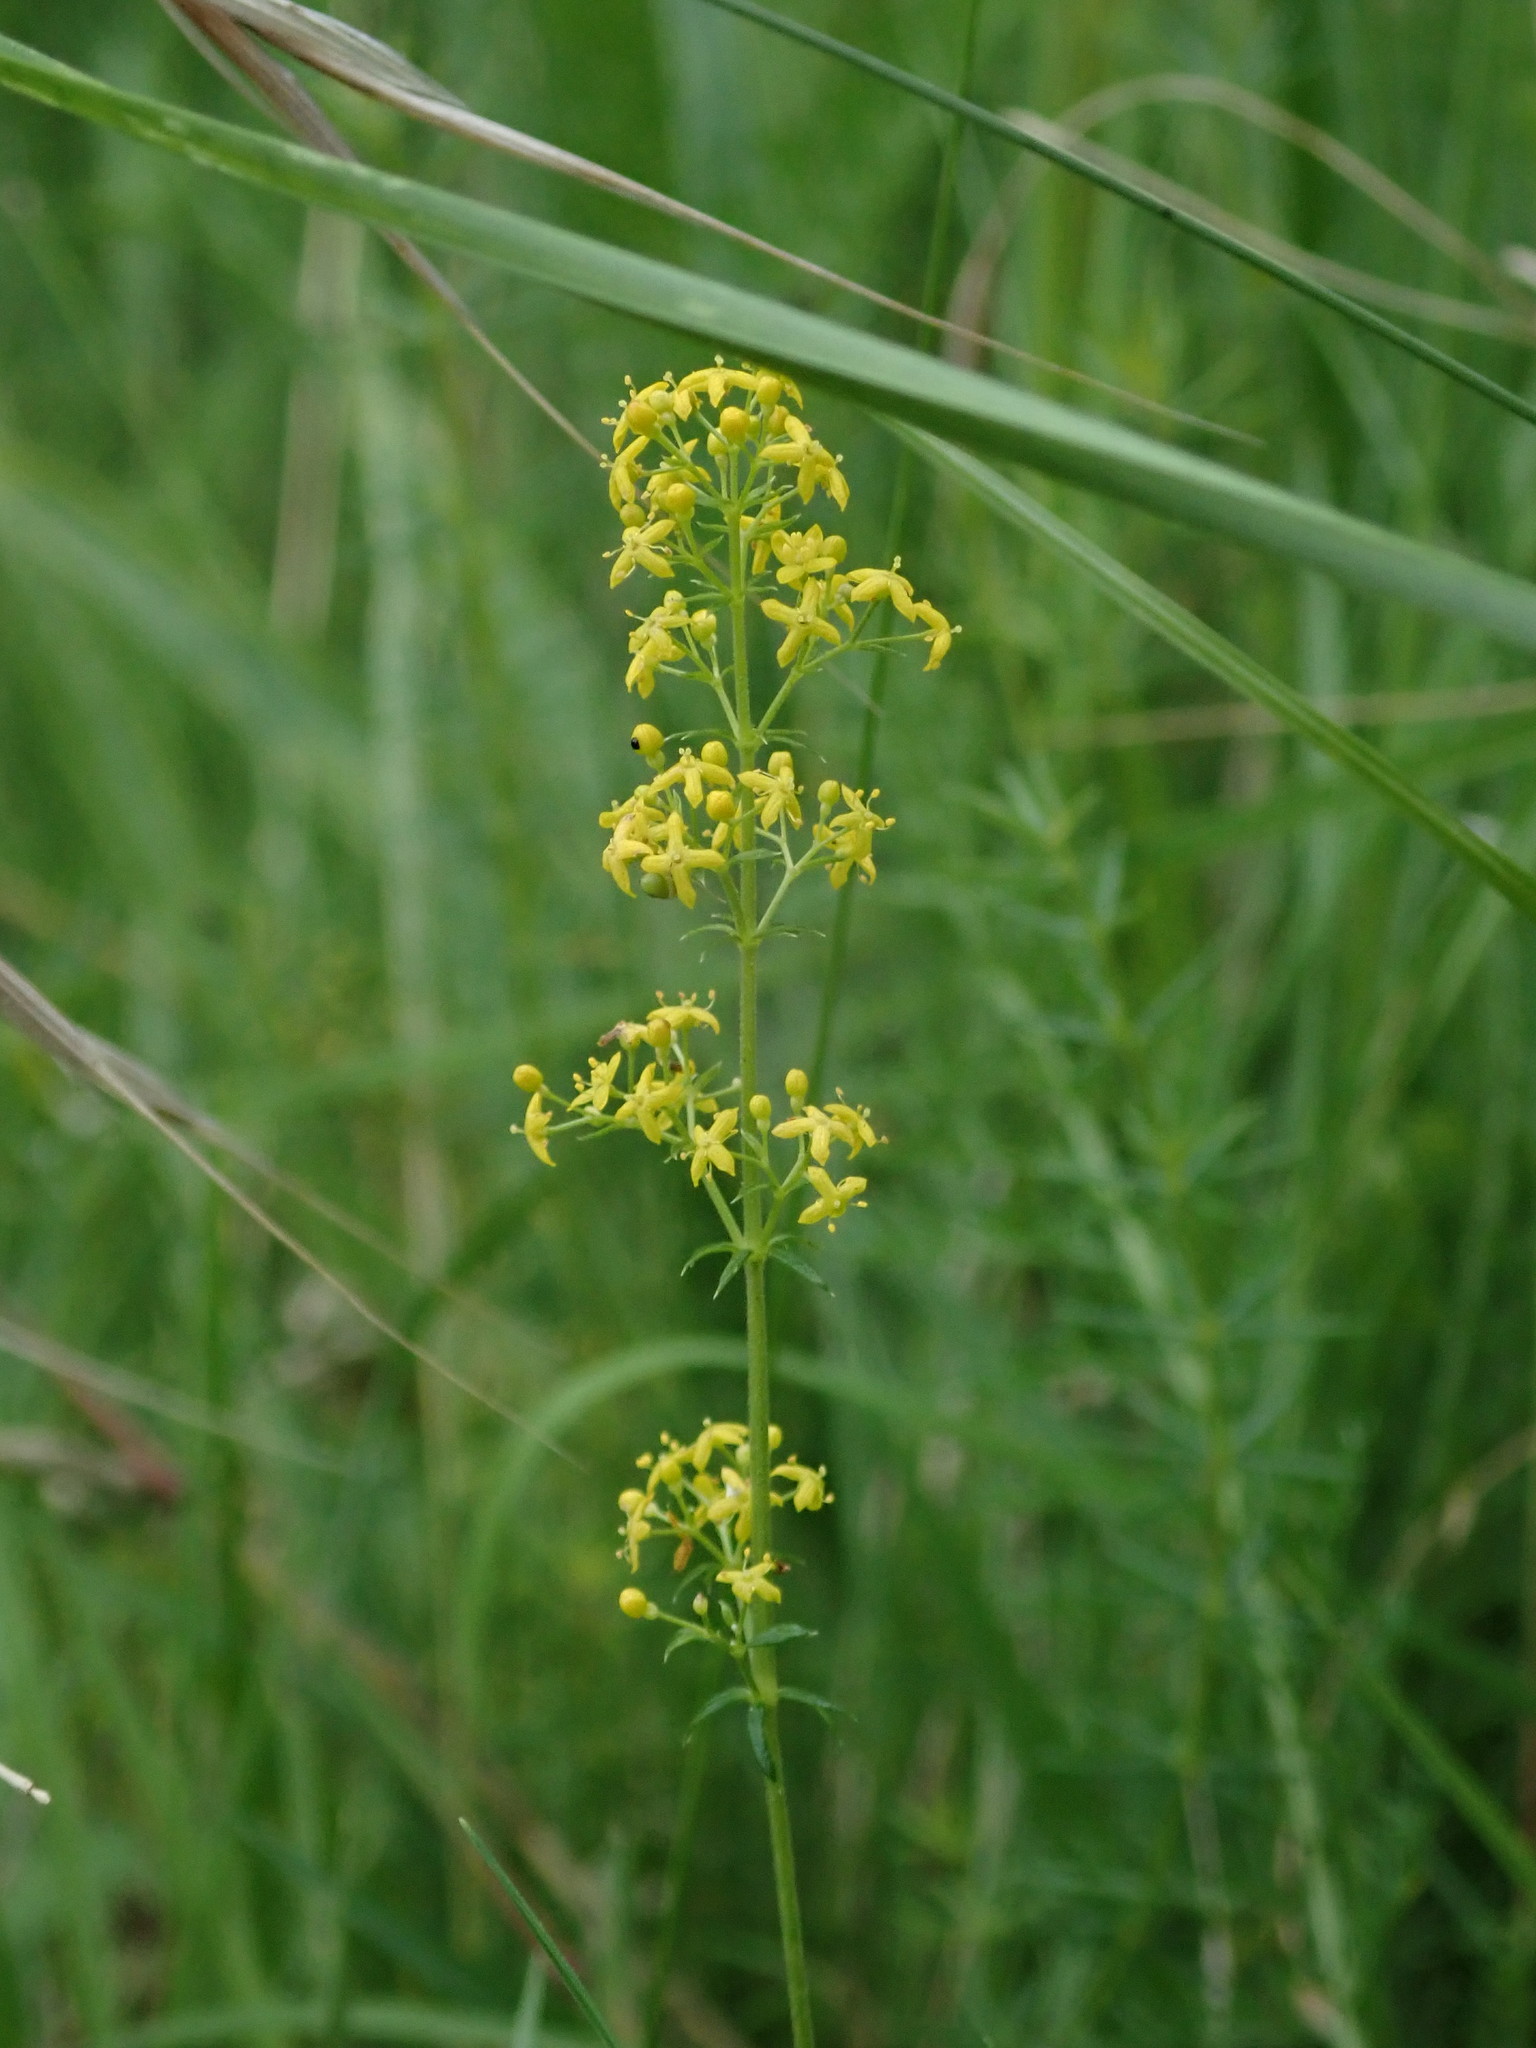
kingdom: Plantae
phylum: Tracheophyta
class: Magnoliopsida
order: Gentianales
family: Rubiaceae
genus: Galium
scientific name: Galium verum
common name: Lady's bedstraw
